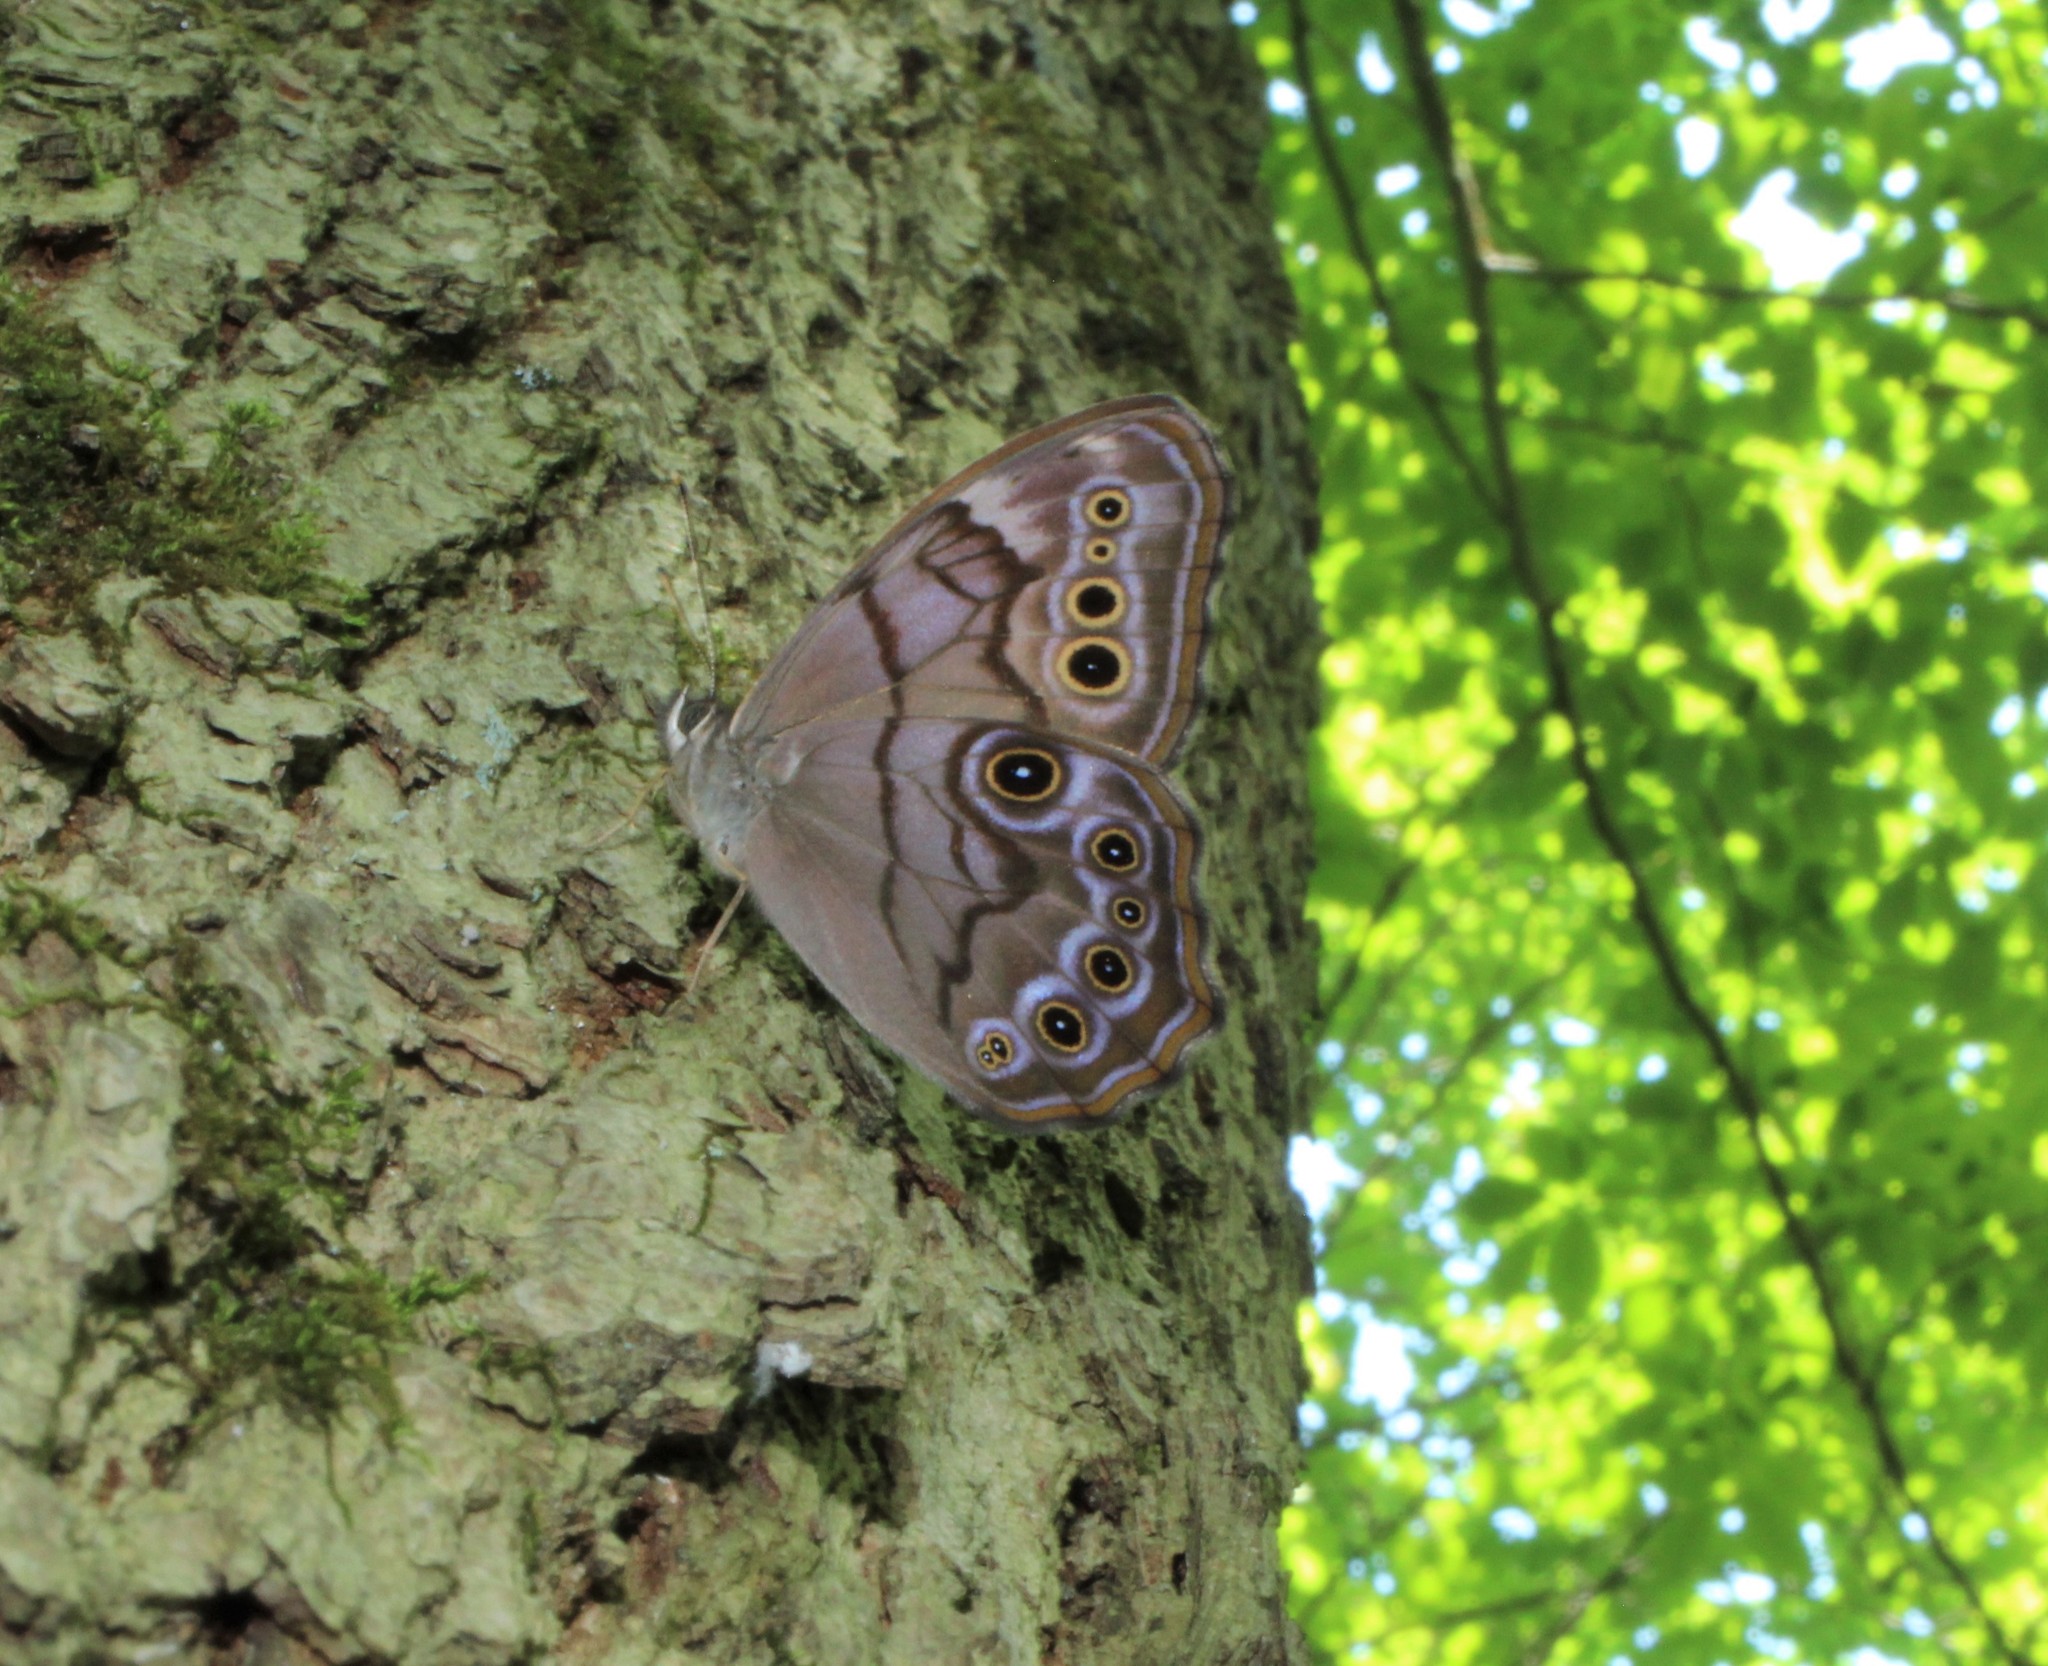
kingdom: Animalia
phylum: Arthropoda
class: Insecta
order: Lepidoptera
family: Nymphalidae
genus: Lethe
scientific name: Lethe anthedon
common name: Northern pearly-eye
